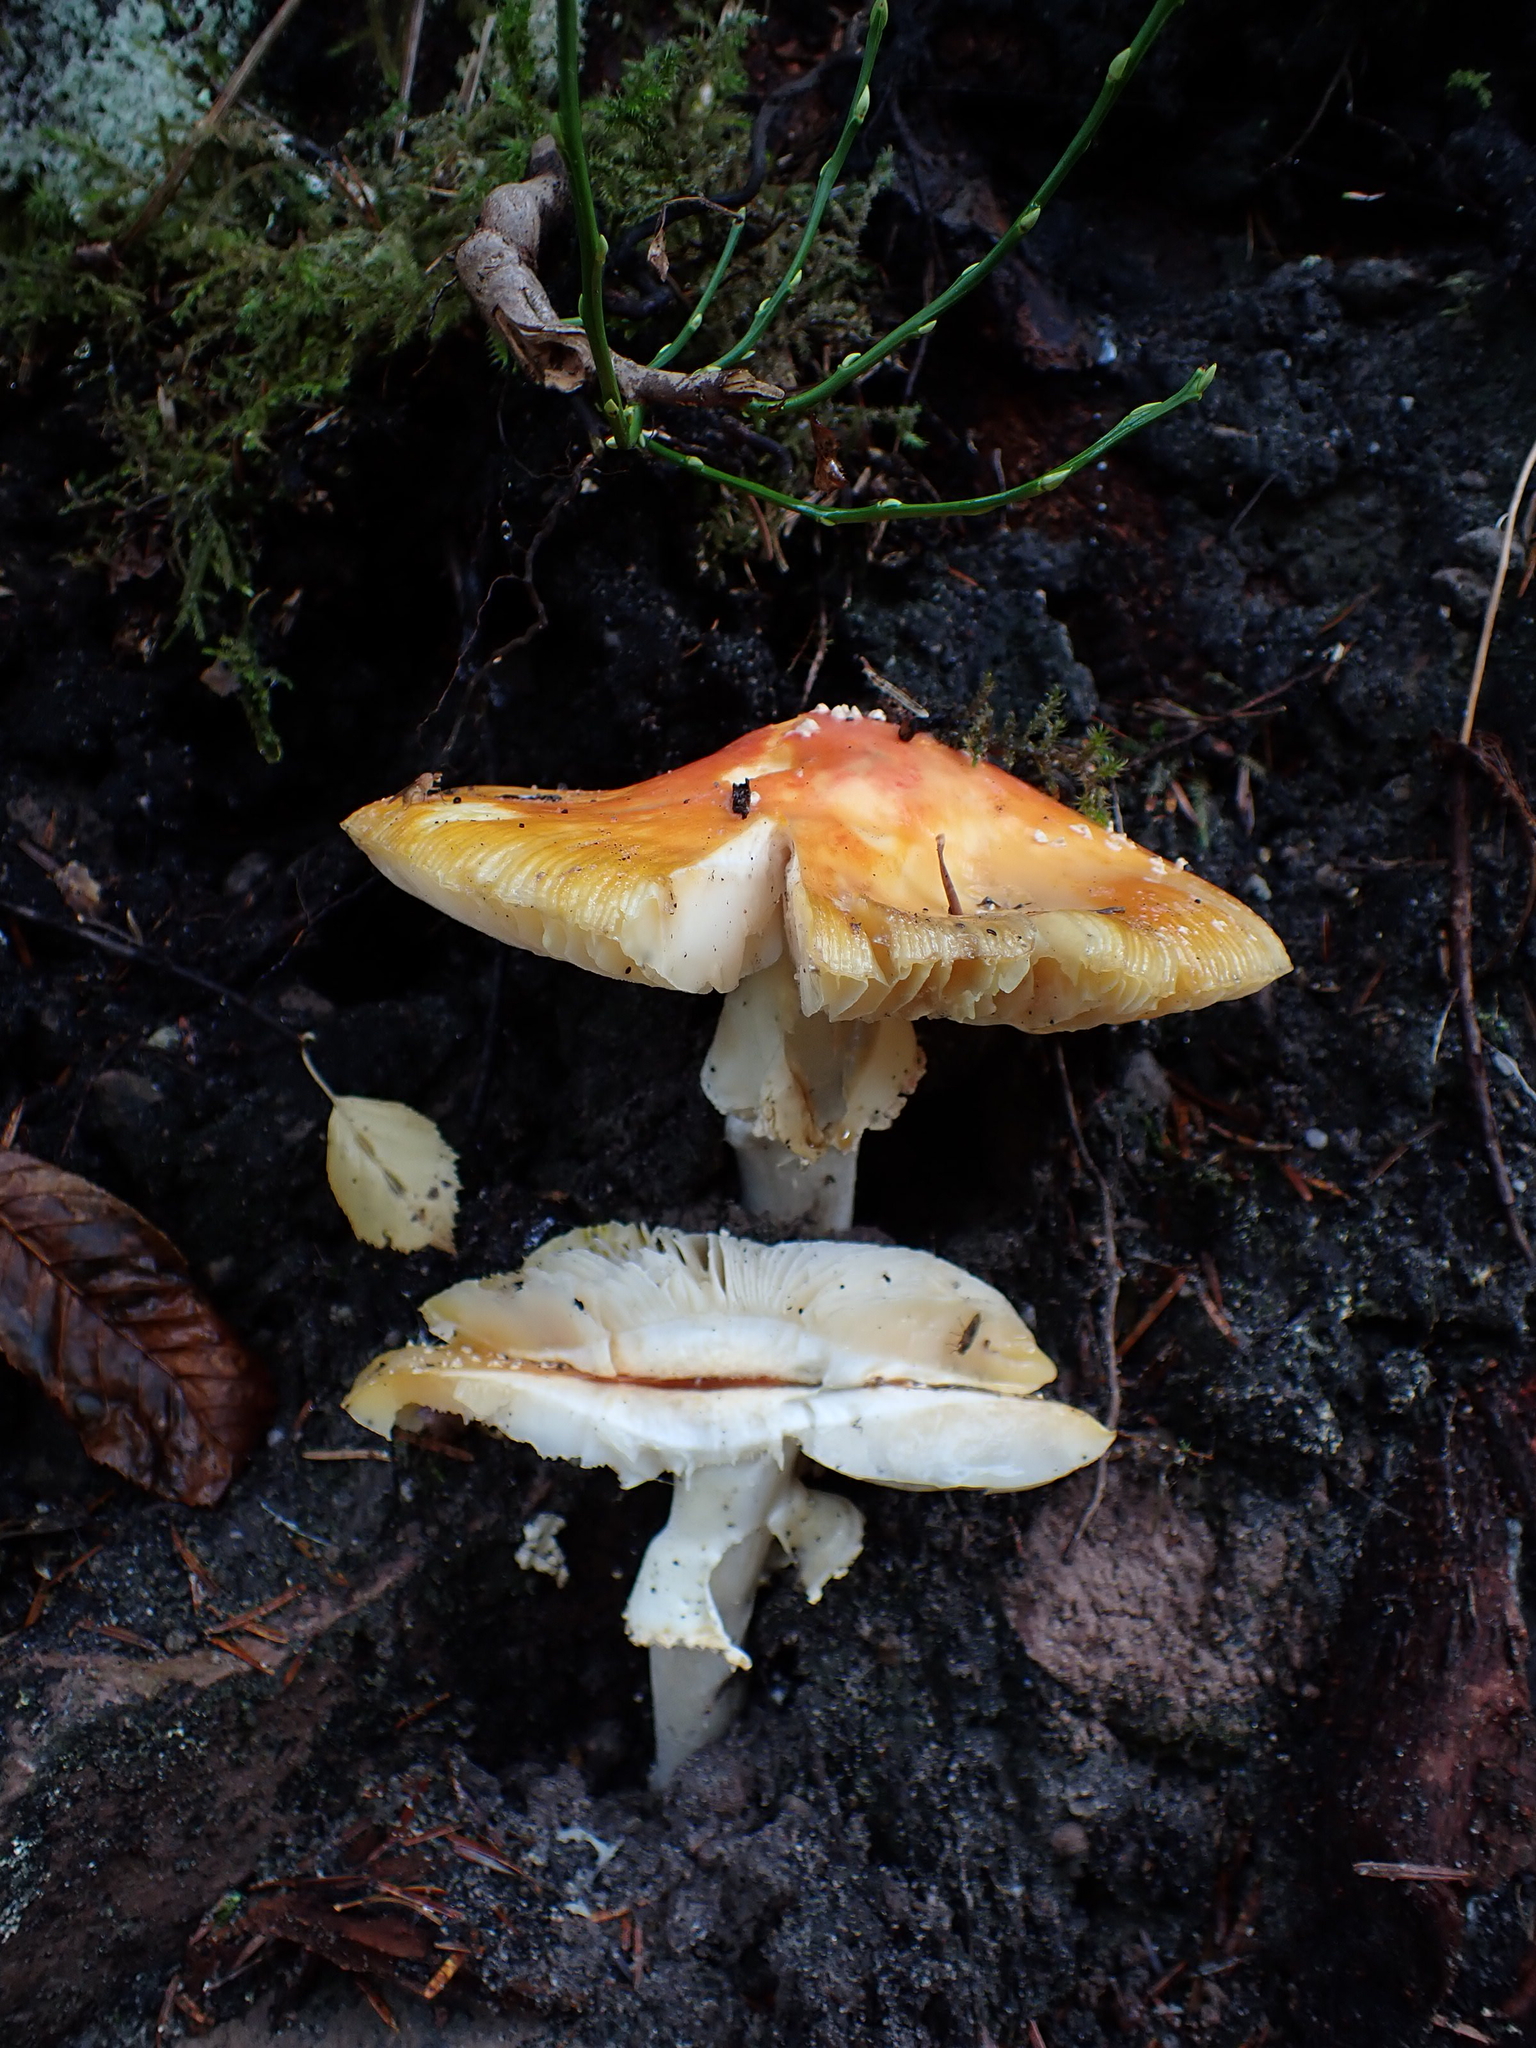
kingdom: Fungi
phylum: Basidiomycota
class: Agaricomycetes
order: Agaricales
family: Amanitaceae
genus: Amanita
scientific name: Amanita muscaria
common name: Fly agaric
